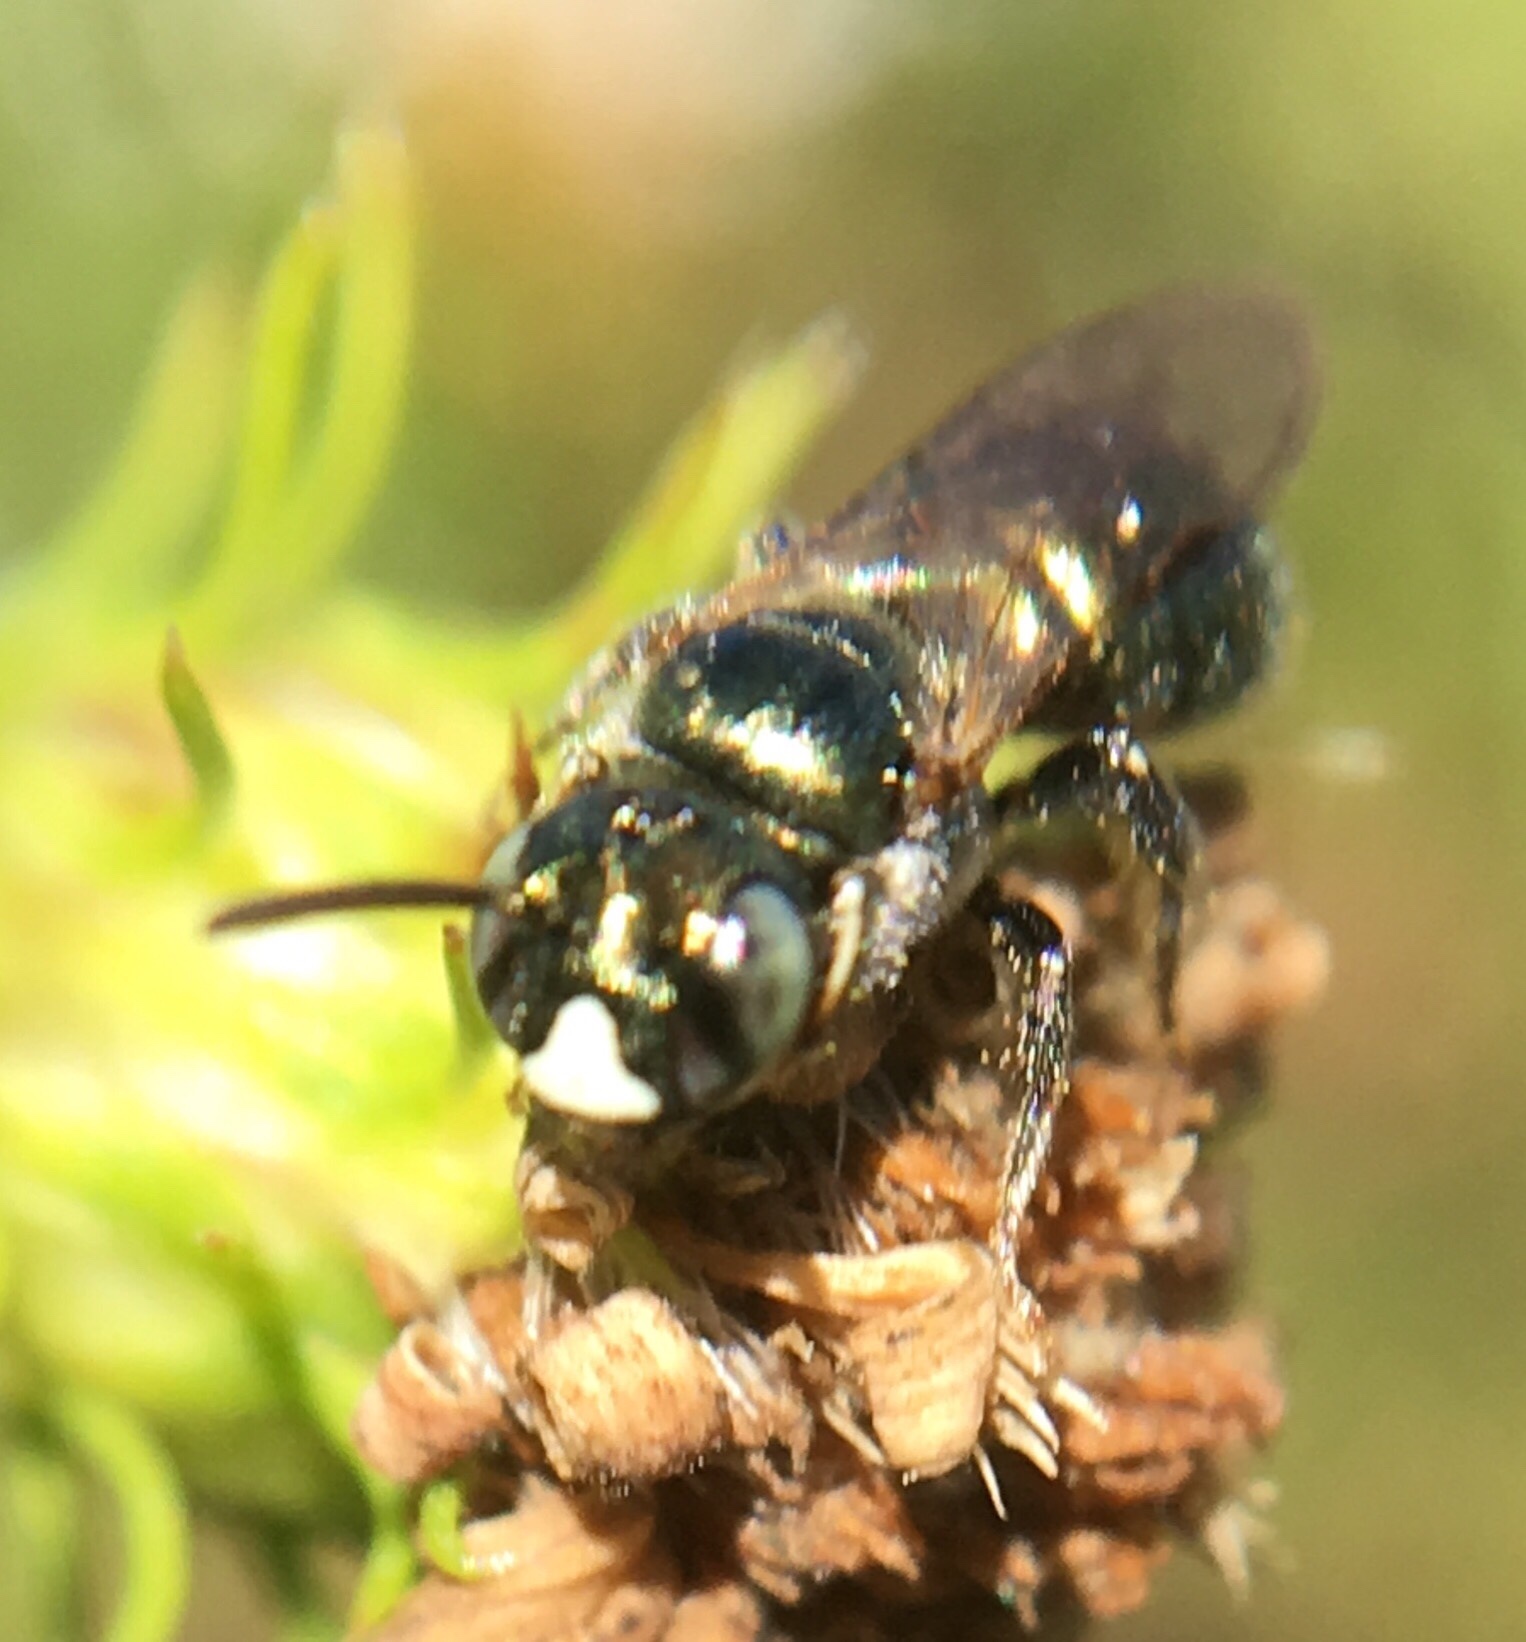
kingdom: Animalia
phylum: Arthropoda
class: Insecta
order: Hymenoptera
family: Apidae
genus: Ceratina
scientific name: Ceratina strenua
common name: Nimble carpenter bee
